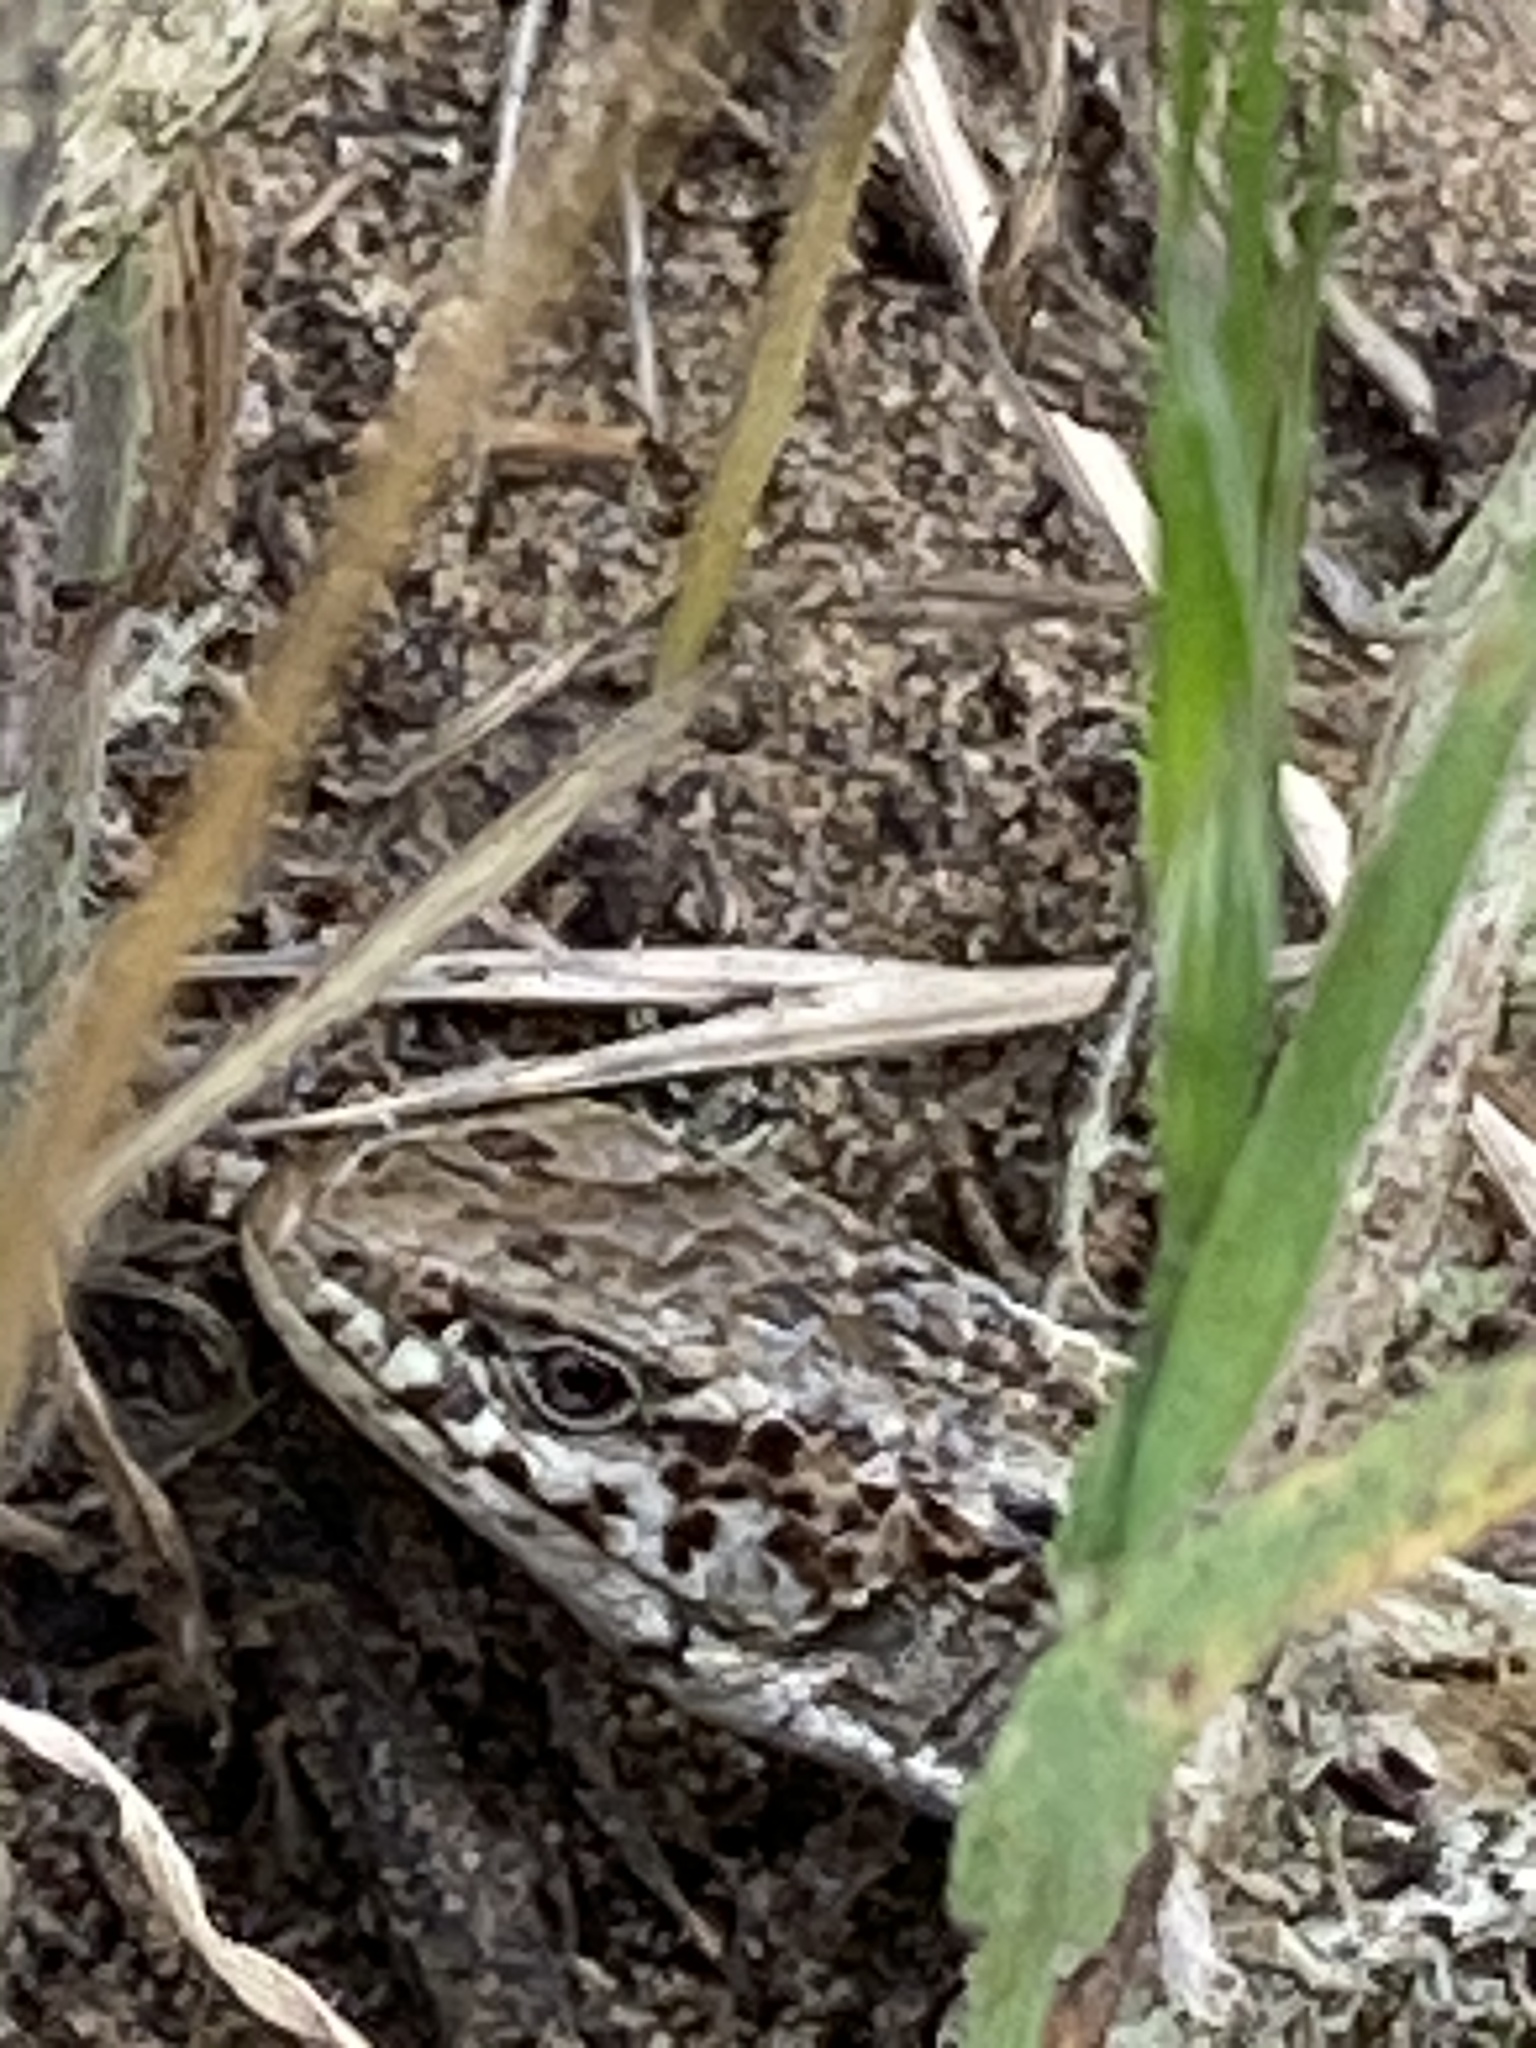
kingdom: Animalia
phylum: Chordata
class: Squamata
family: Anguidae
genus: Elgaria
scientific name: Elgaria coerulea
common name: Northern alligator lizard
